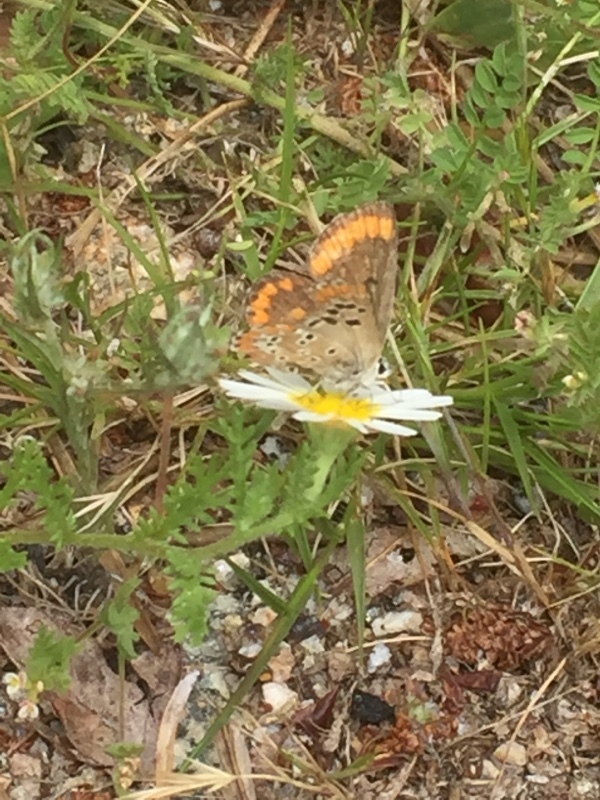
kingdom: Animalia
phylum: Arthropoda
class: Insecta
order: Lepidoptera
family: Lycaenidae
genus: Aricia
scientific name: Aricia cramera
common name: Eschscholtz´s brown  argus
